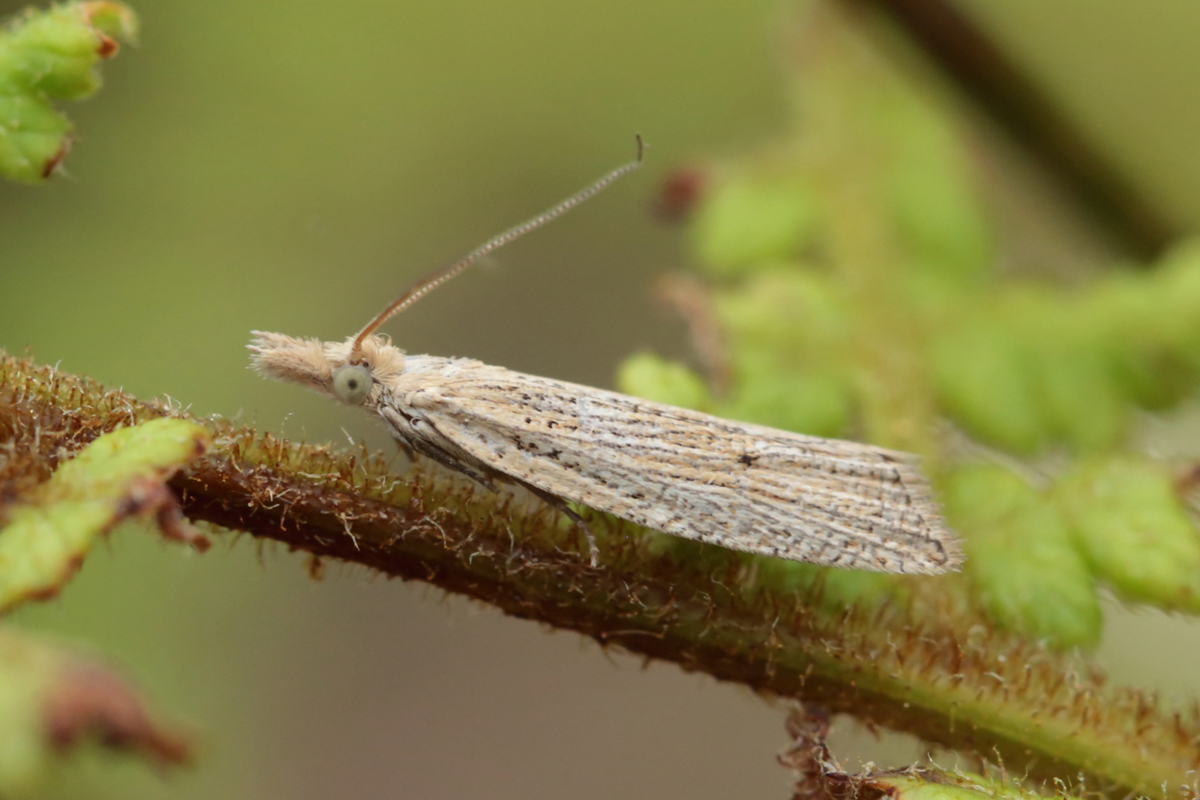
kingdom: Animalia
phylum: Arthropoda
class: Insecta
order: Lepidoptera
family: Tortricidae
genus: Bactra
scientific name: Bactra noteraula
